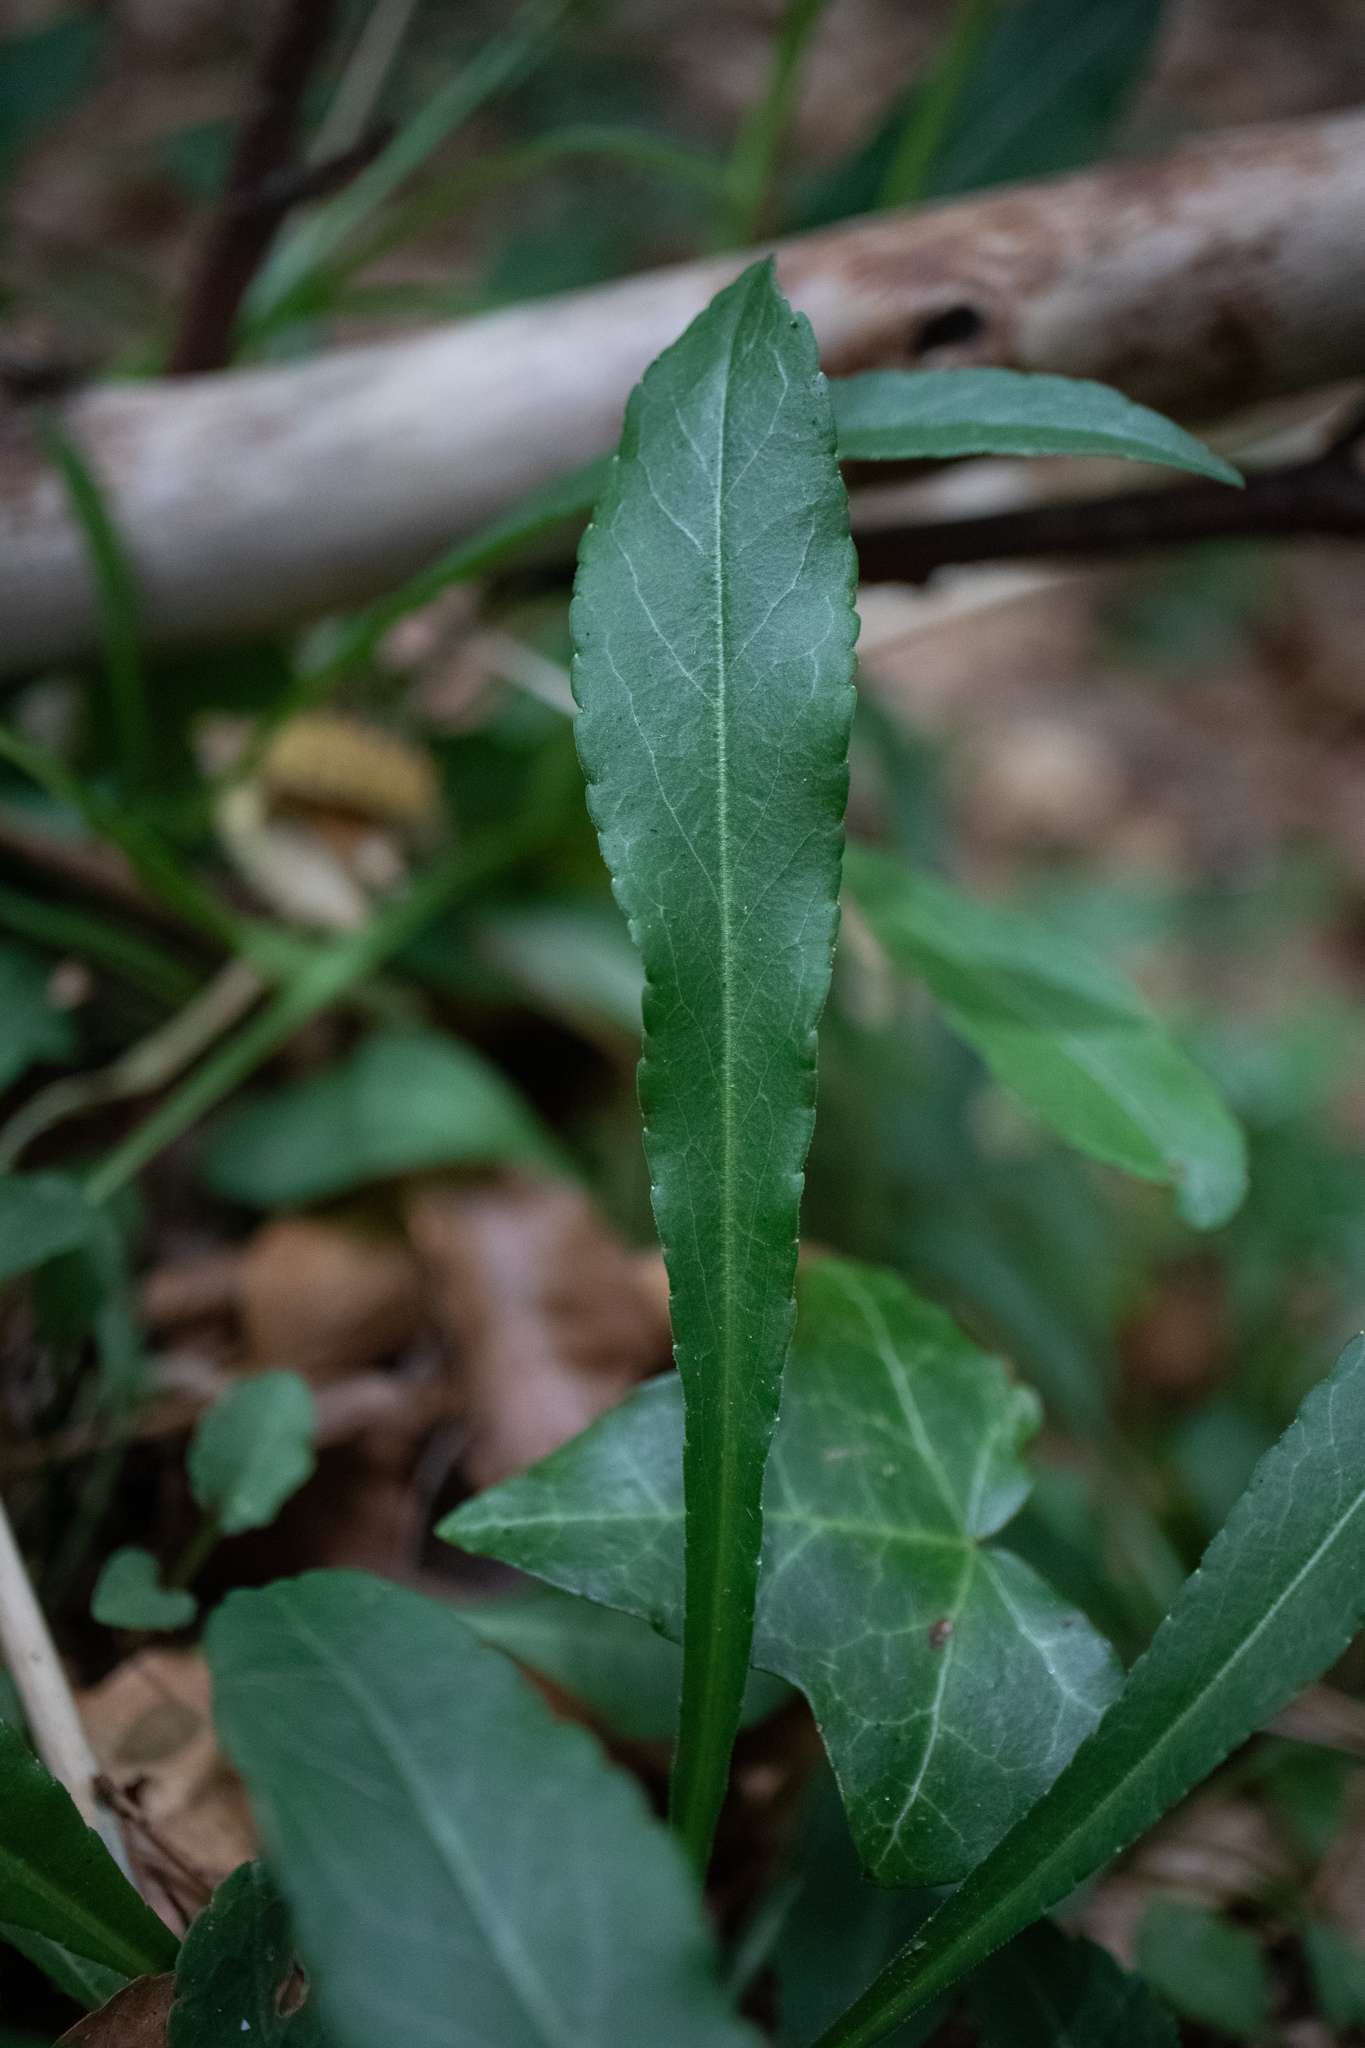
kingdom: Plantae
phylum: Tracheophyta
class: Magnoliopsida
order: Asterales
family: Campanulaceae
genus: Campanula
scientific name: Campanula persicifolia
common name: Peach-leaved bellflower
